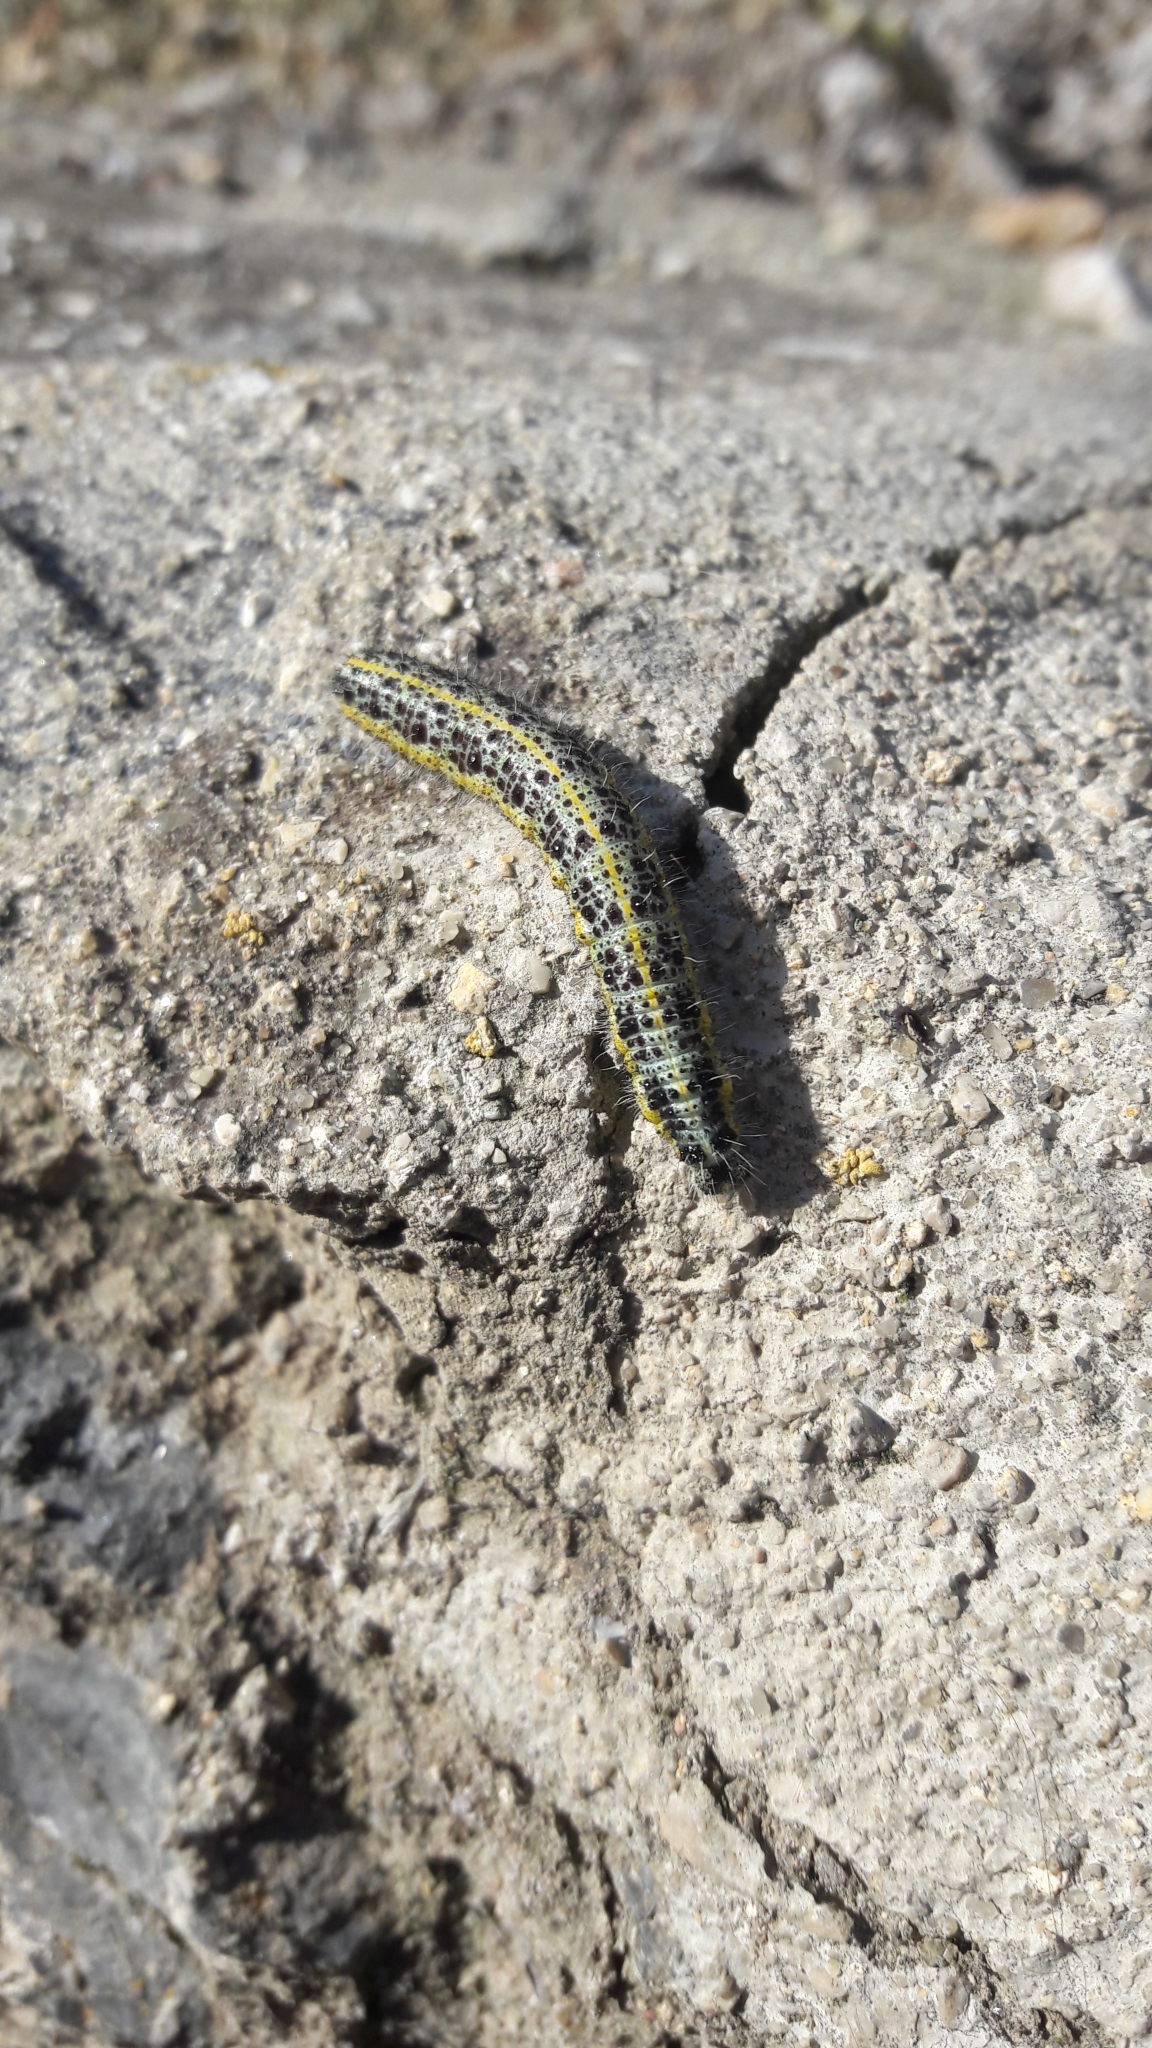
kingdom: Animalia
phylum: Arthropoda
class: Insecta
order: Lepidoptera
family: Pieridae
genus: Pieris
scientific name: Pieris brassicae
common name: Large white
